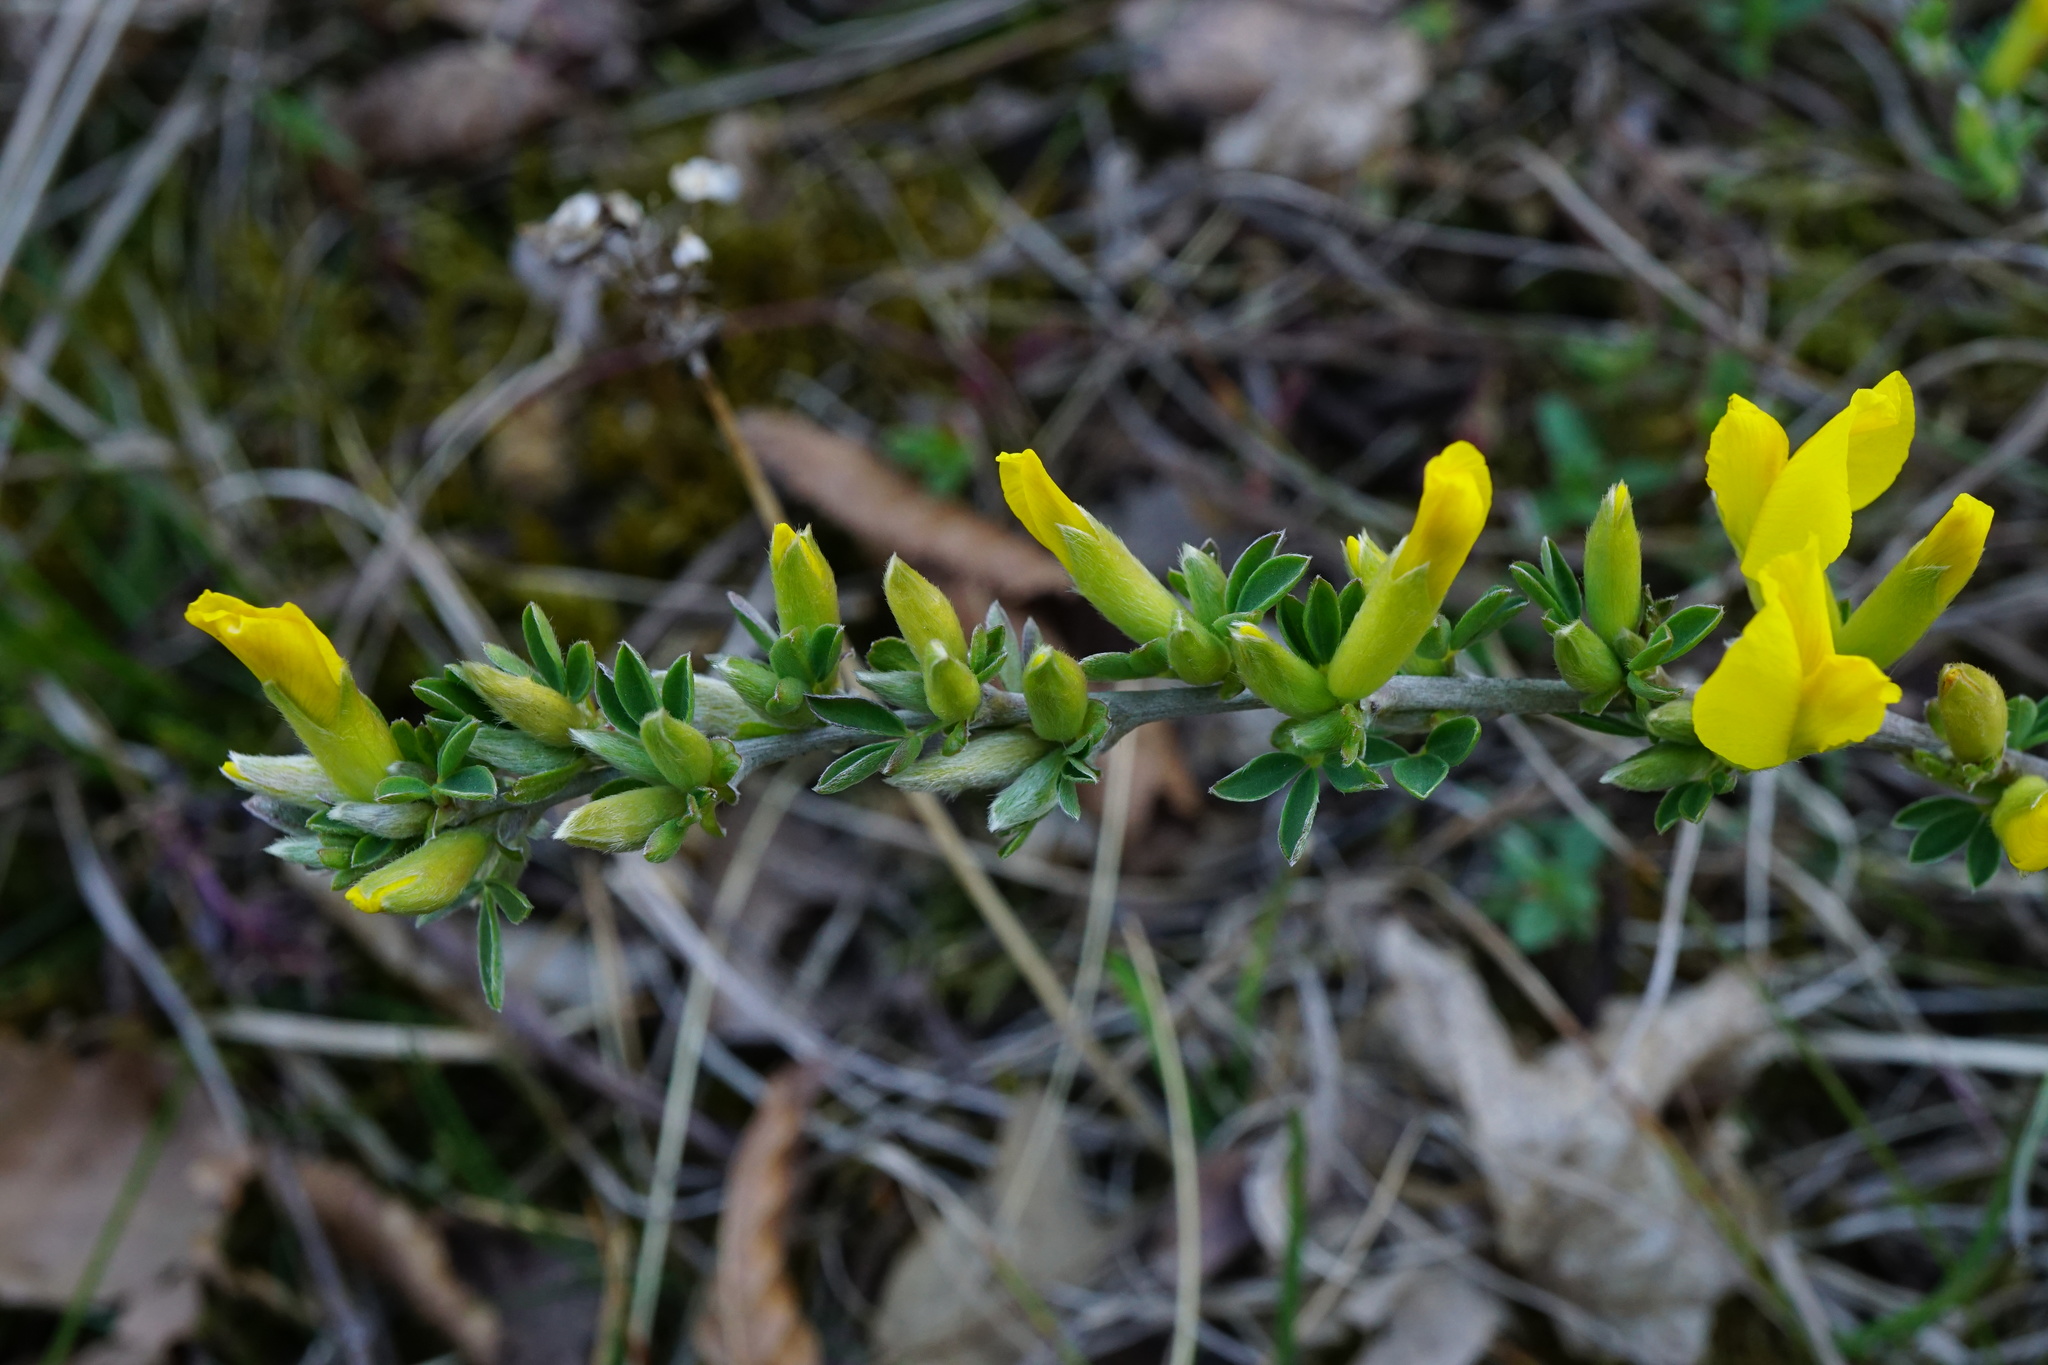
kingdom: Plantae
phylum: Tracheophyta
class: Magnoliopsida
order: Fabales
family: Fabaceae
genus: Chamaecytisus
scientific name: Chamaecytisus ratisbonensis
